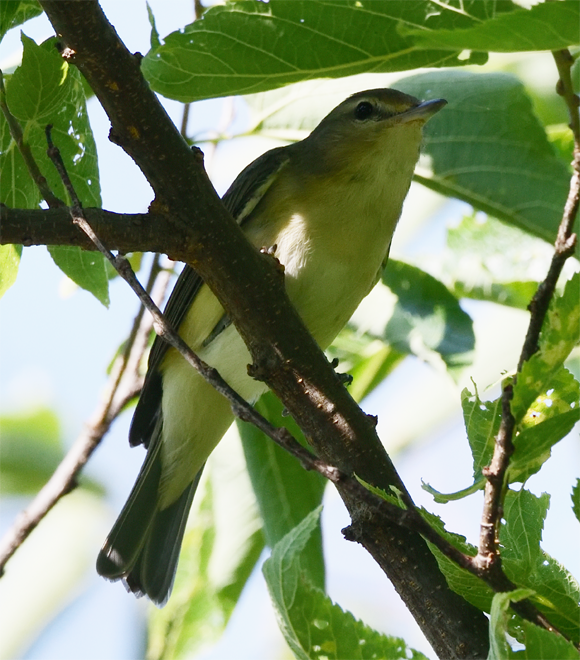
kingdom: Animalia
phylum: Chordata
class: Aves
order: Passeriformes
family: Vireonidae
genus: Vireo
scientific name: Vireo gilvus
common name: Warbling vireo
